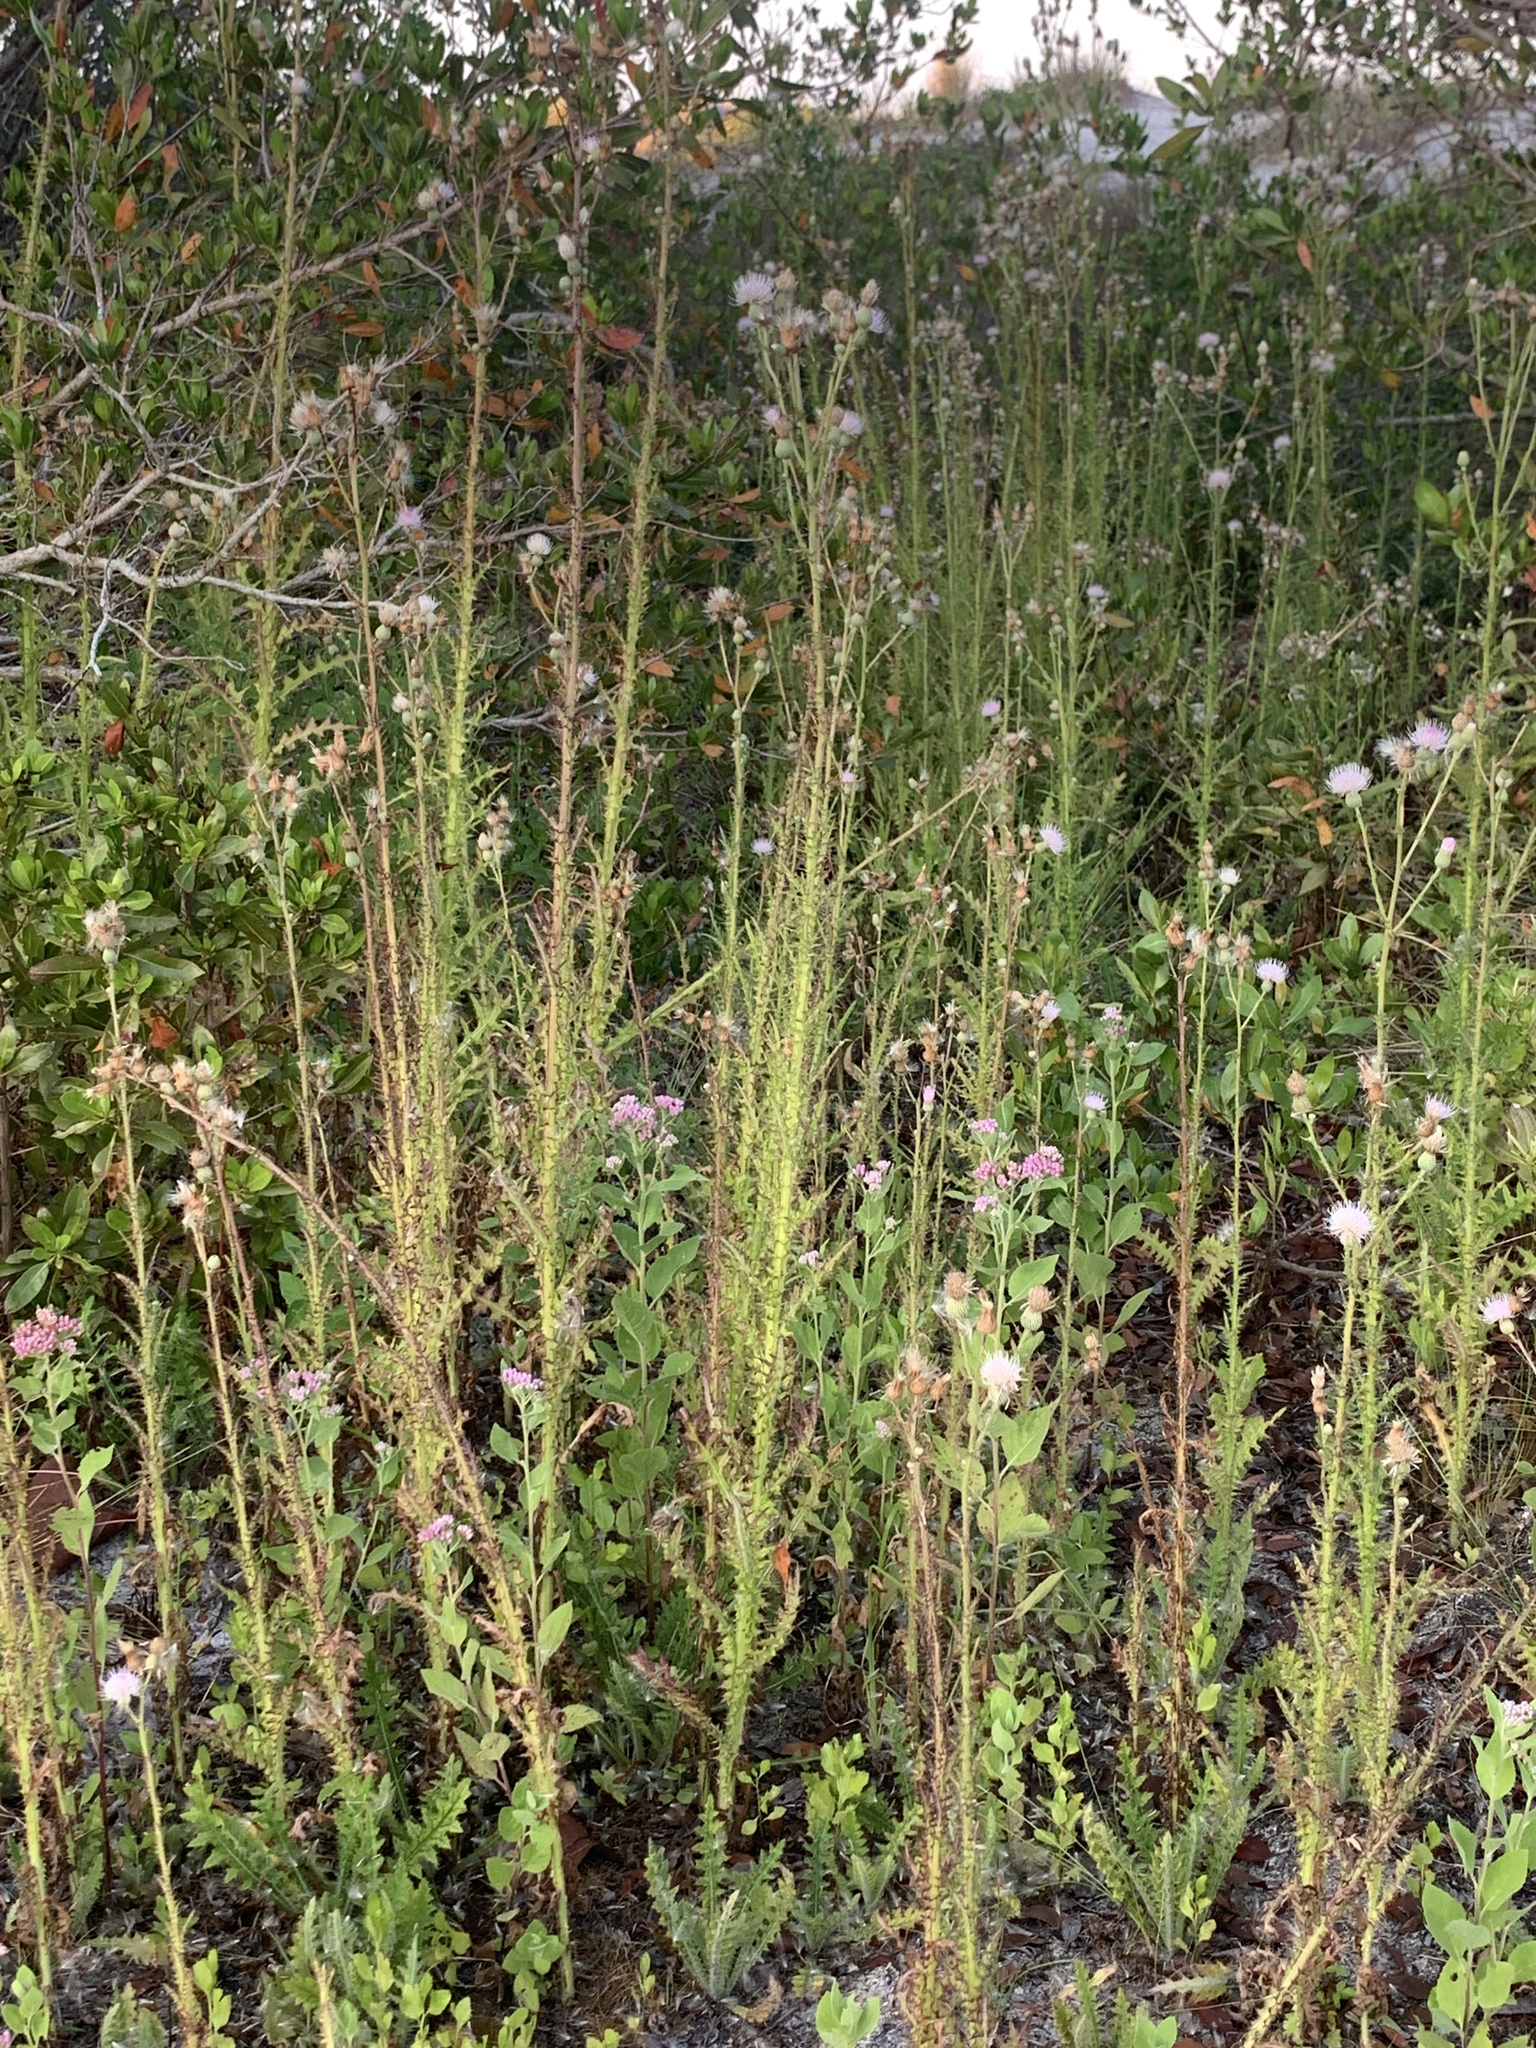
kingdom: Plantae
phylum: Tracheophyta
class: Magnoliopsida
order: Asterales
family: Asteraceae
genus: Cirsium
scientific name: Cirsium nuttalii
